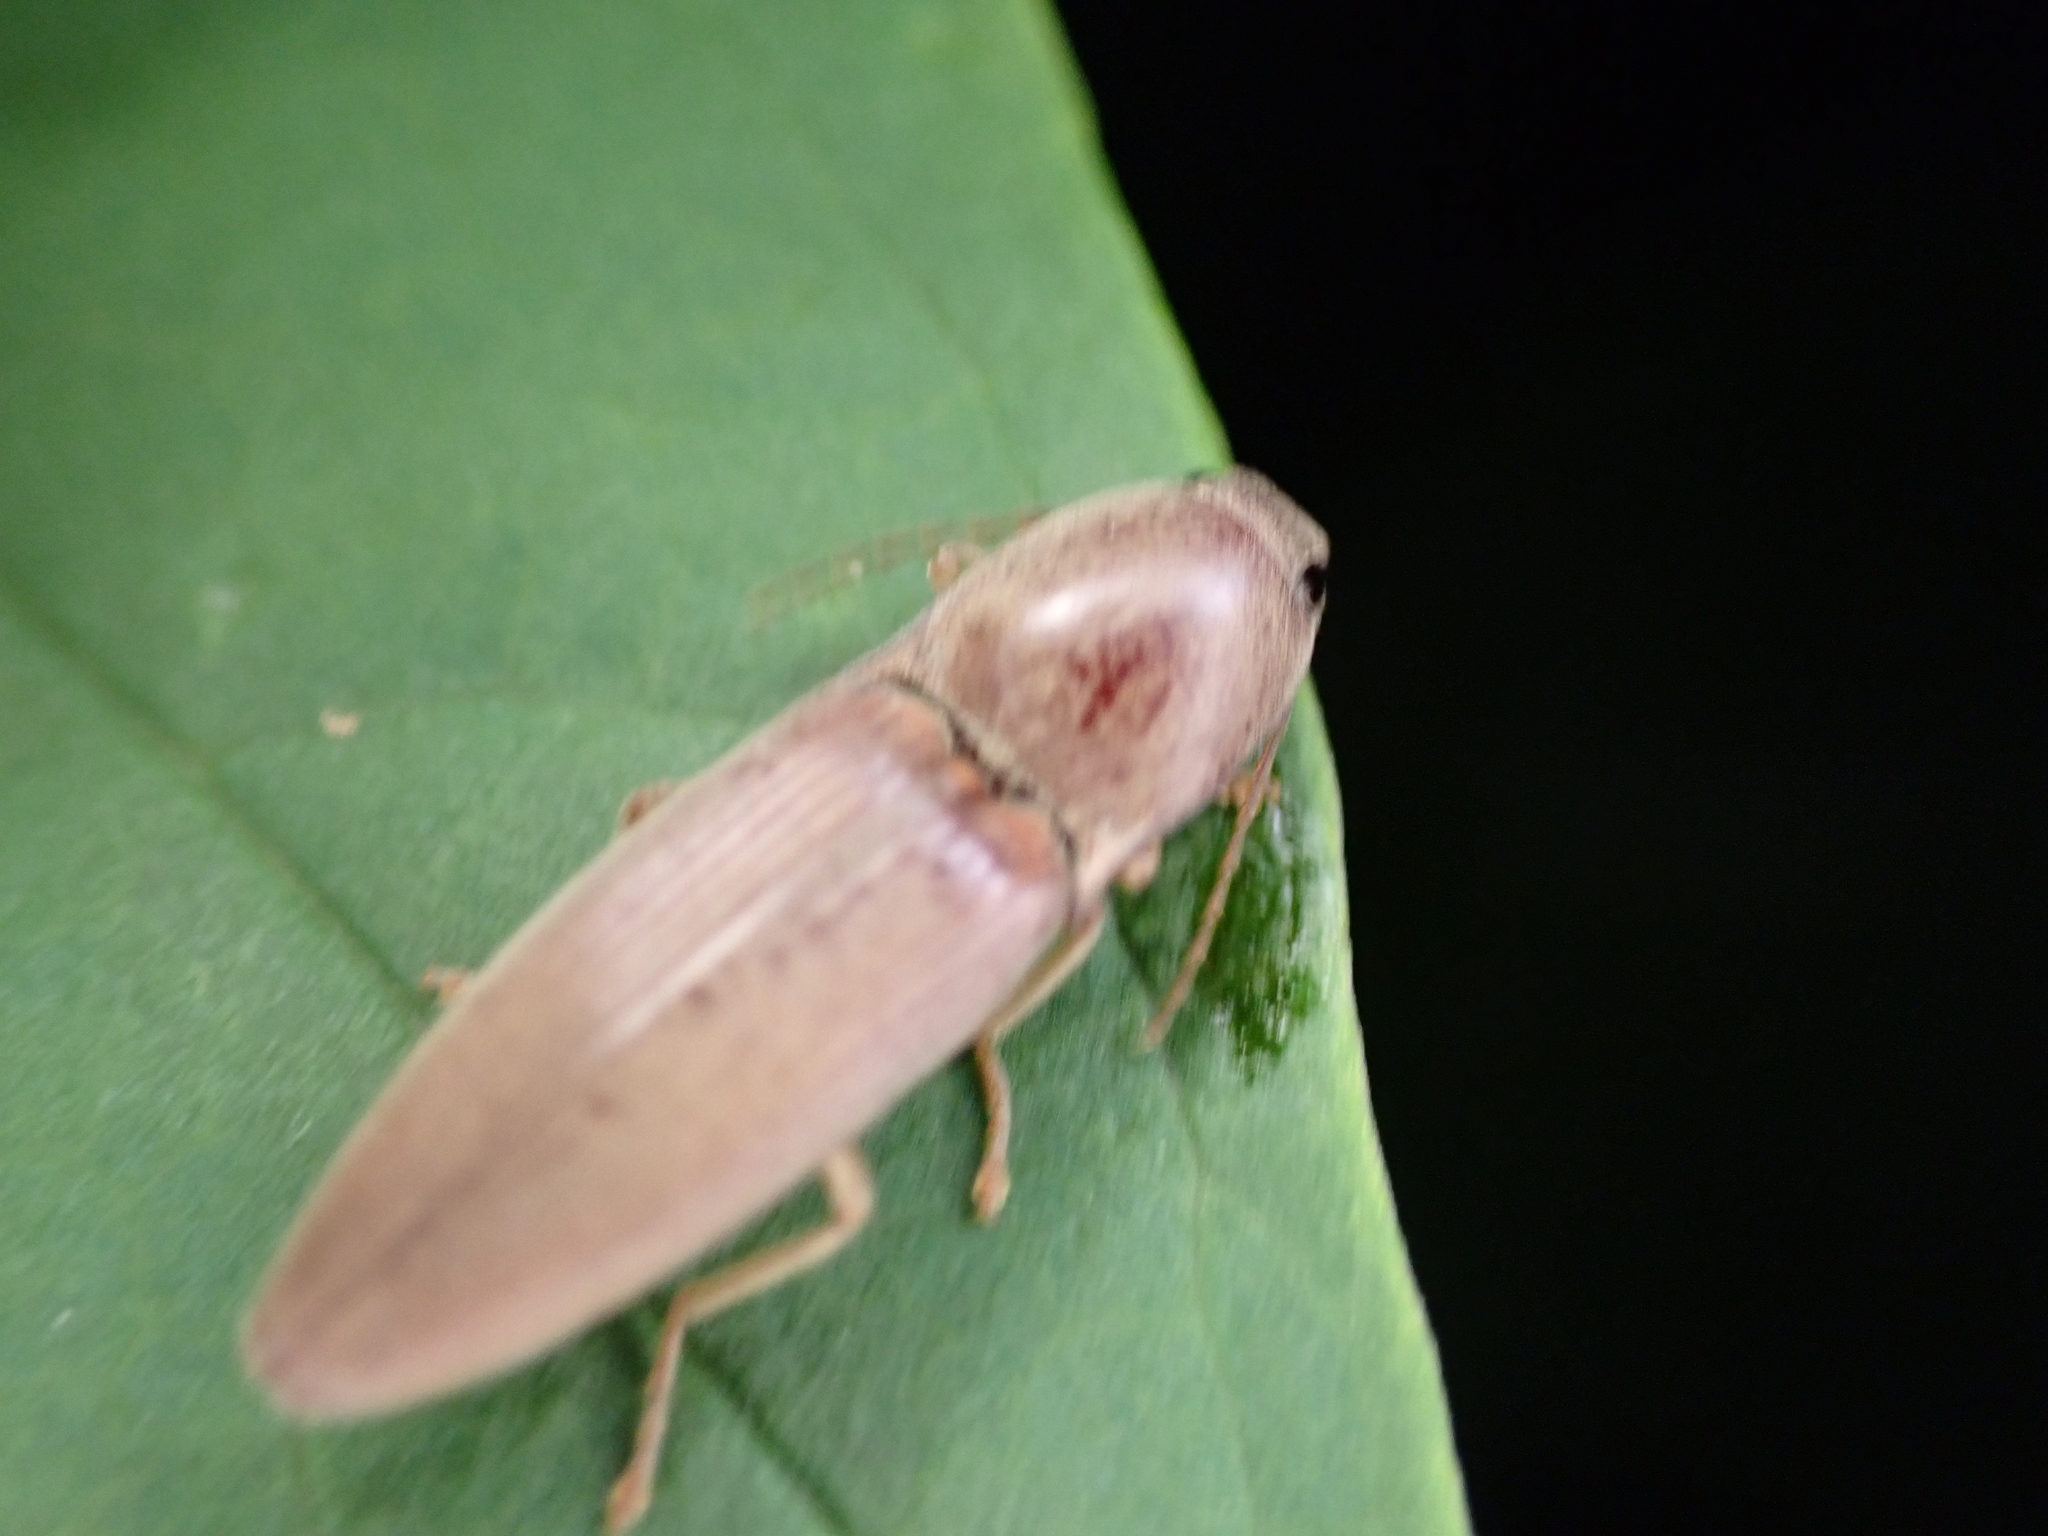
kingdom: Animalia
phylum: Arthropoda
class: Insecta
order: Coleoptera
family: Elateridae
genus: Monocrepidius
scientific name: Monocrepidius lividus
